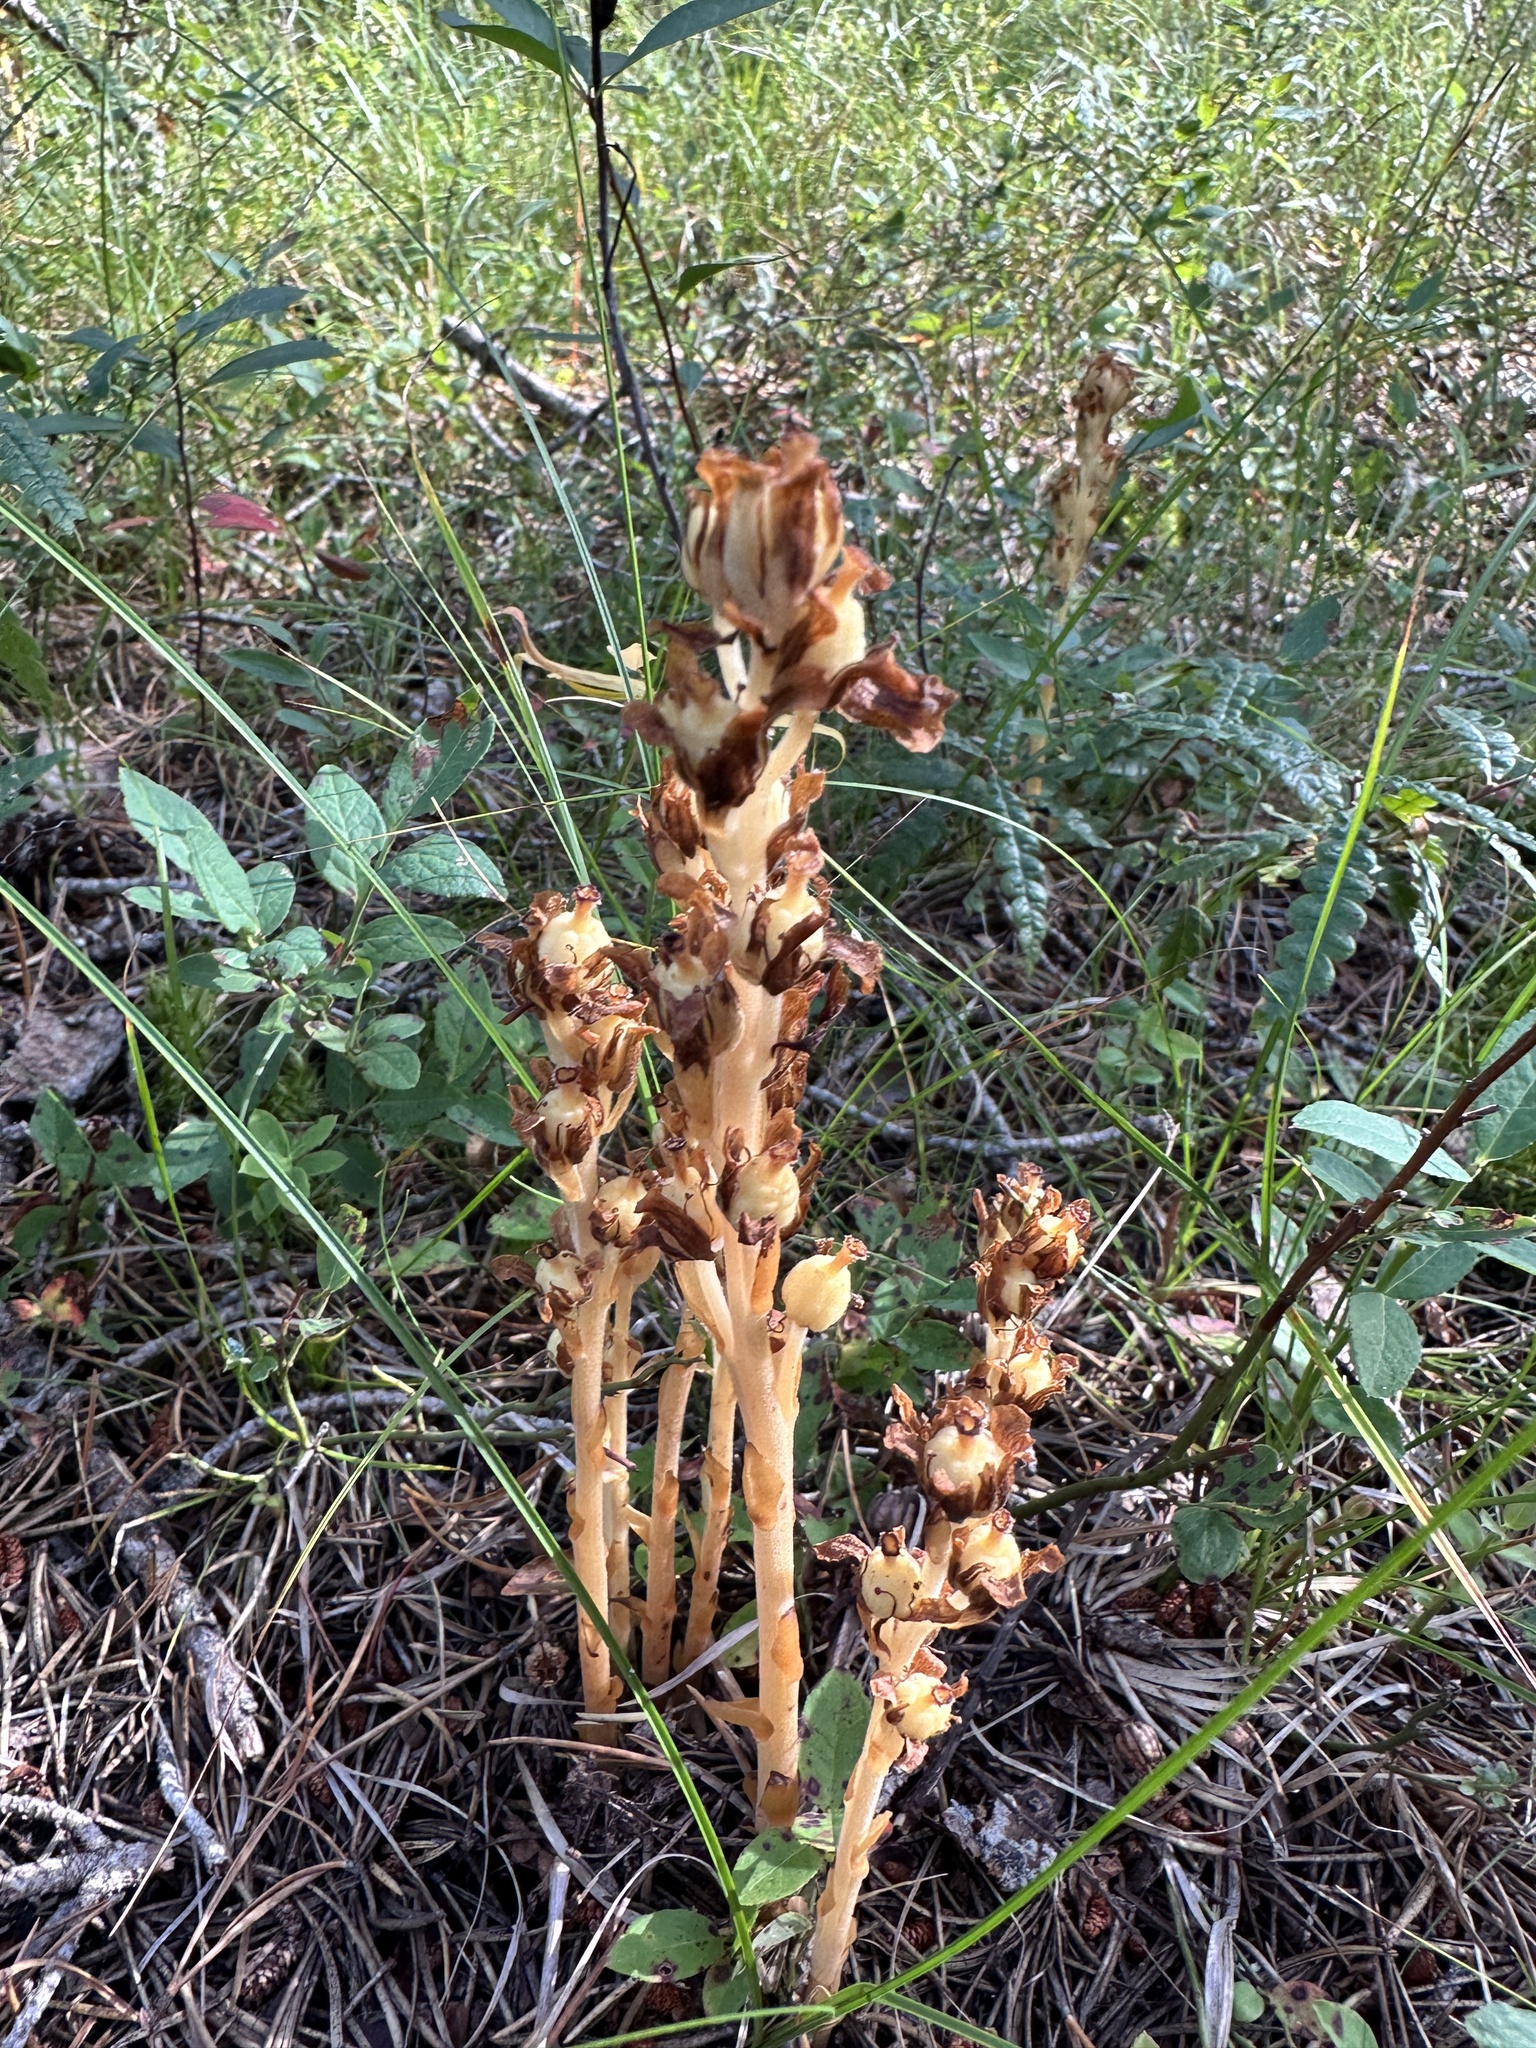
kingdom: Plantae
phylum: Tracheophyta
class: Magnoliopsida
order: Ericales
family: Ericaceae
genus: Hypopitys
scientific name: Hypopitys monotropa
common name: Yellow bird's-nest
